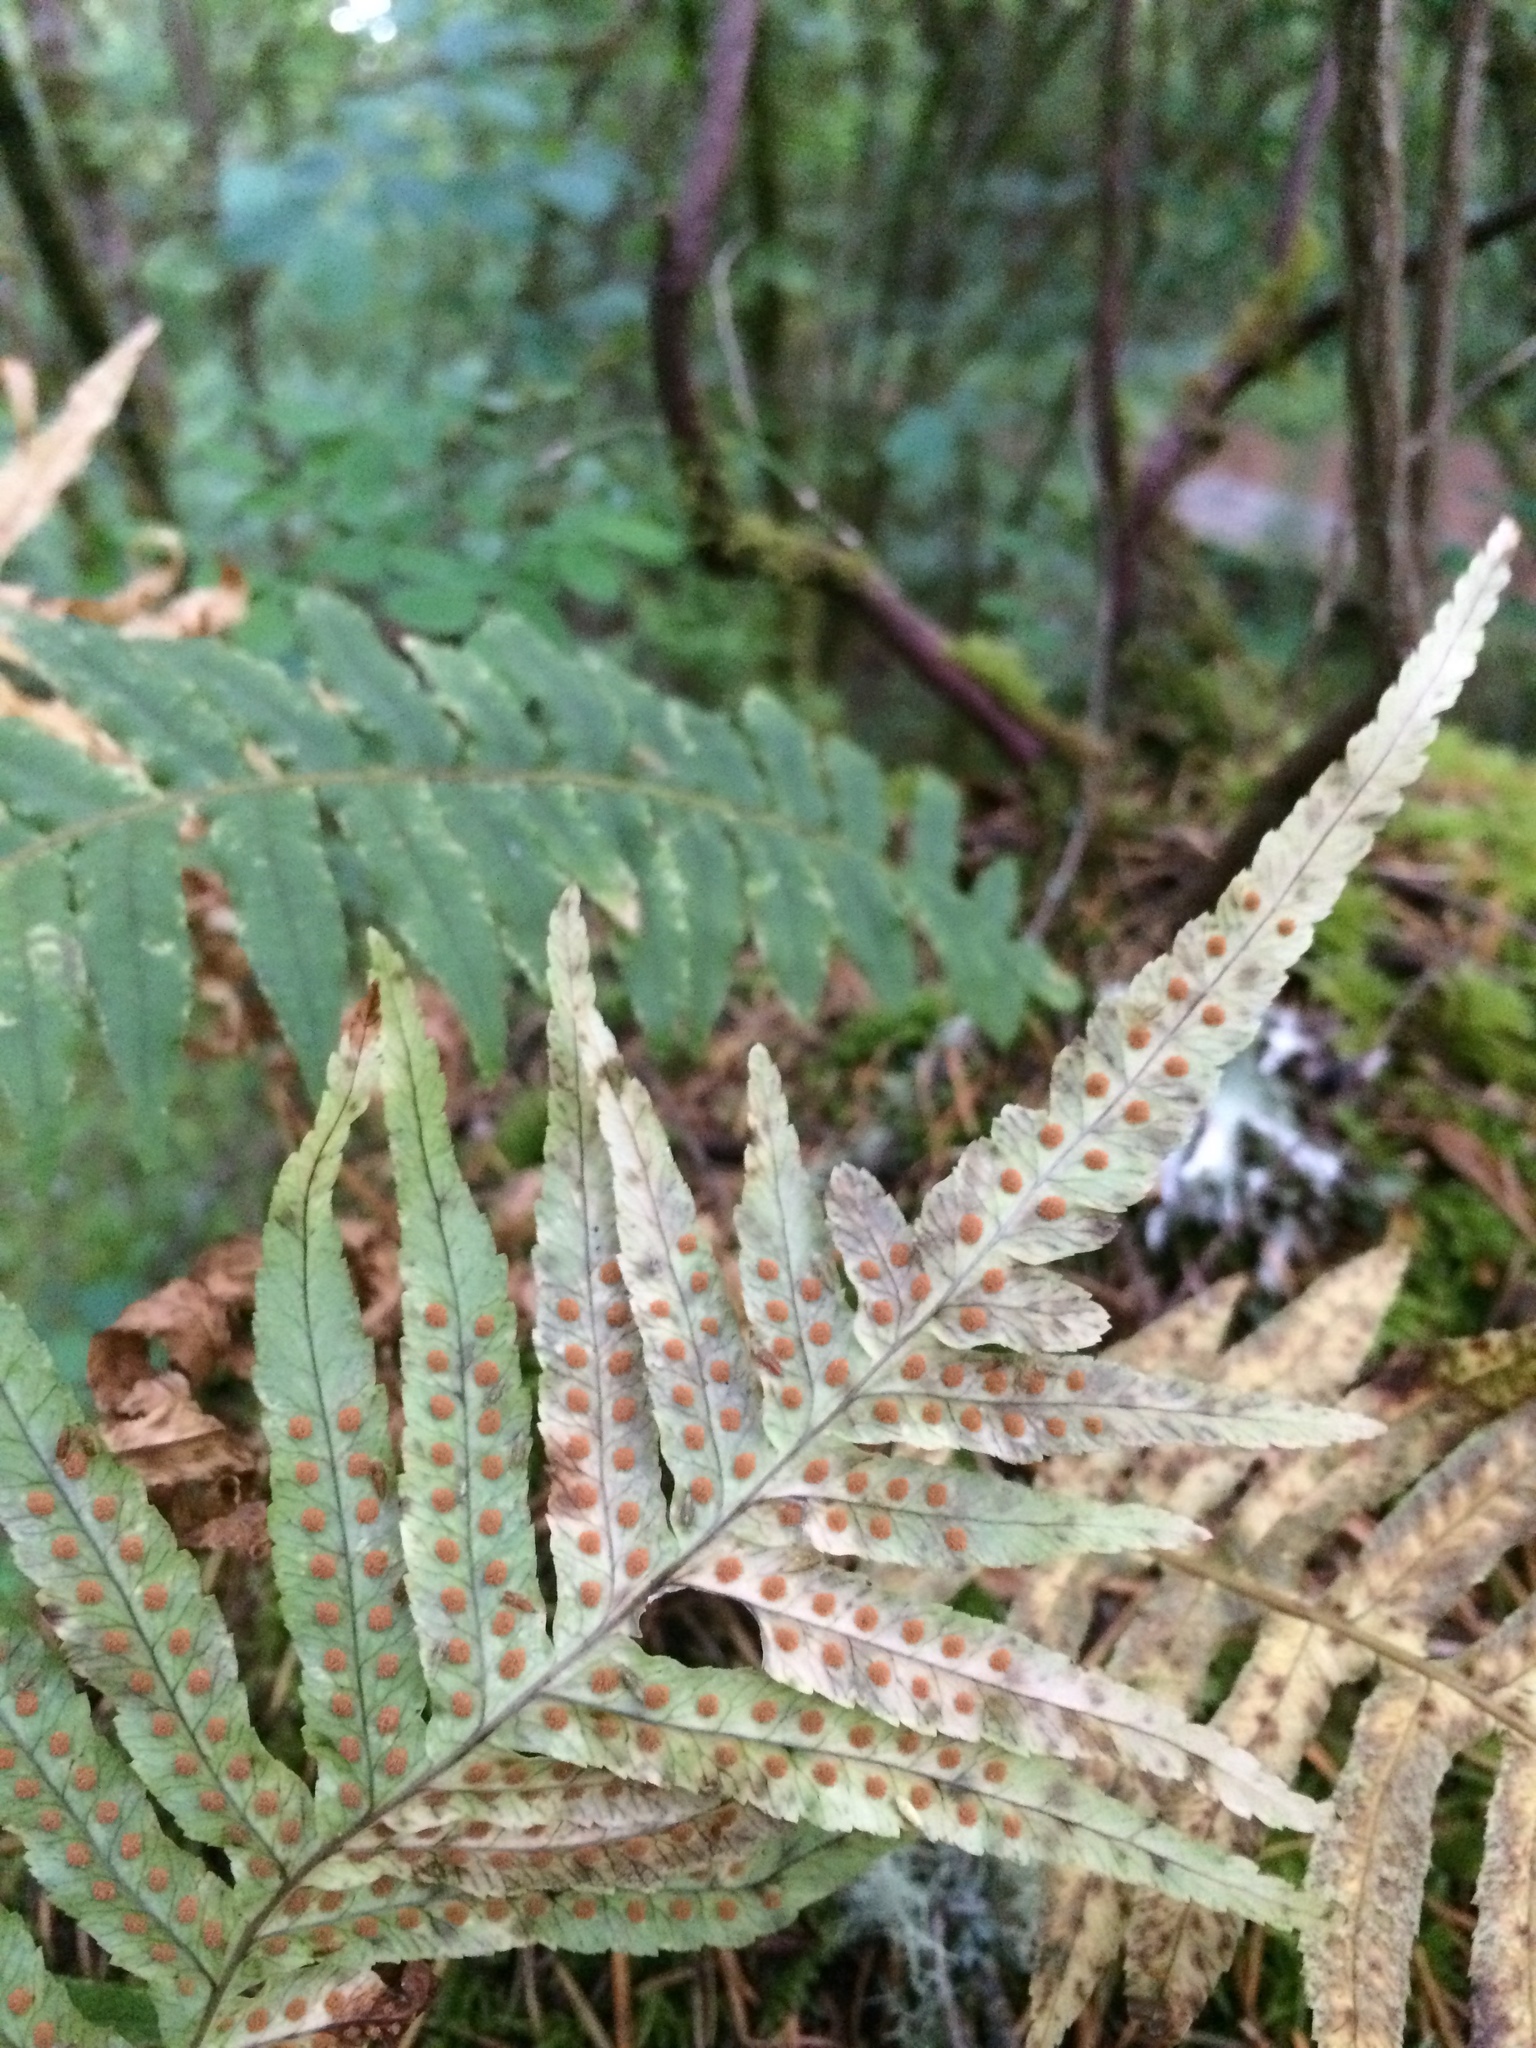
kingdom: Plantae
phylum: Tracheophyta
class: Polypodiopsida
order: Polypodiales
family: Polypodiaceae
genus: Polypodium
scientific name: Polypodium glycyrrhiza
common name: Licorice fern
